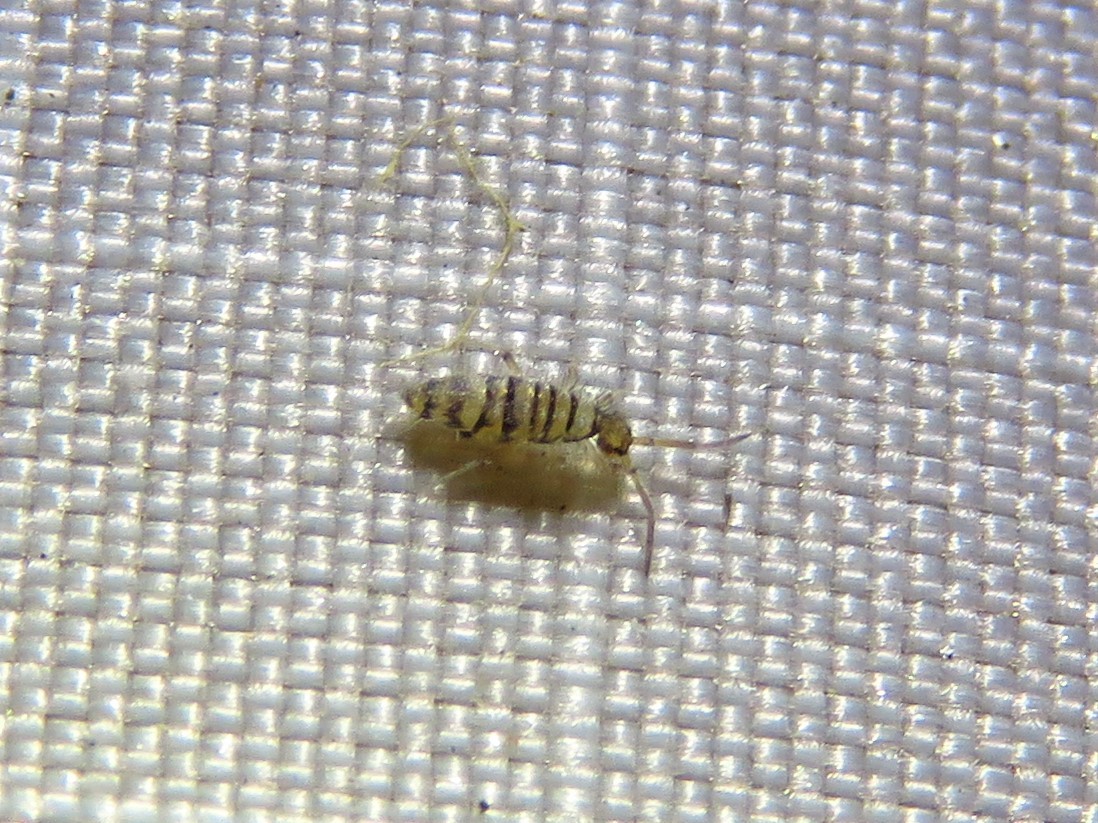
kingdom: Animalia
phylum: Arthropoda
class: Collembola
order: Entomobryomorpha
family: Entomobryidae
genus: Entomobrya
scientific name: Entomobrya atrocincta
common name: Springtail
